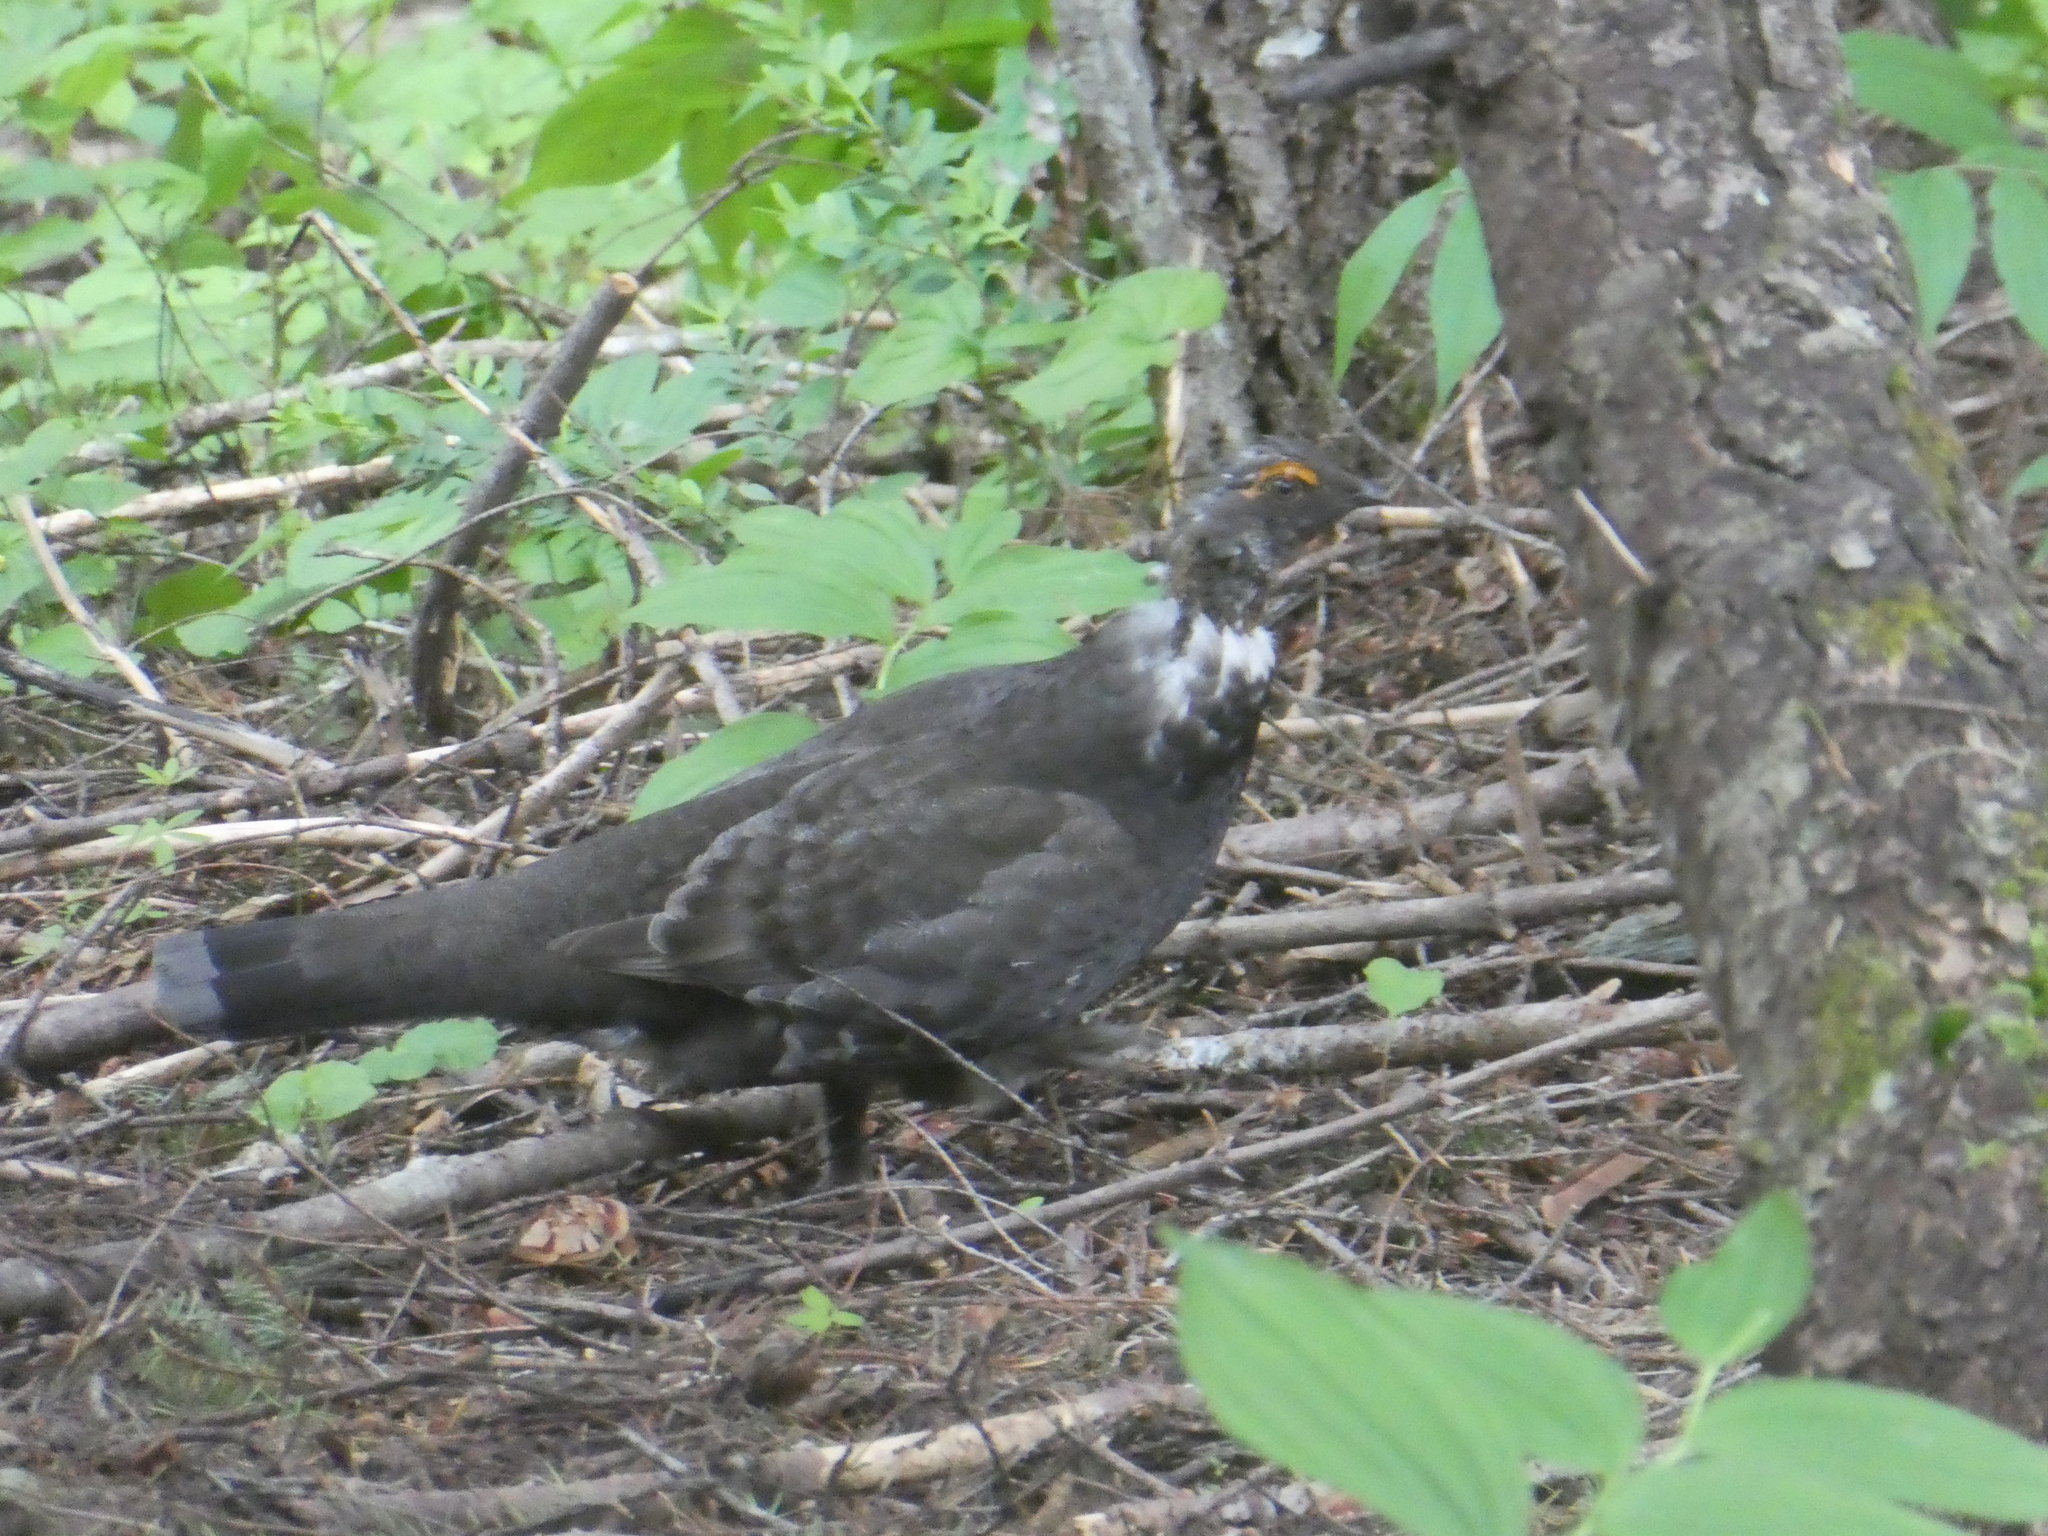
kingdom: Animalia
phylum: Chordata
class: Aves
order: Galliformes
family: Phasianidae
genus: Dendragapus
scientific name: Dendragapus fuliginosus
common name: Sooty grouse
